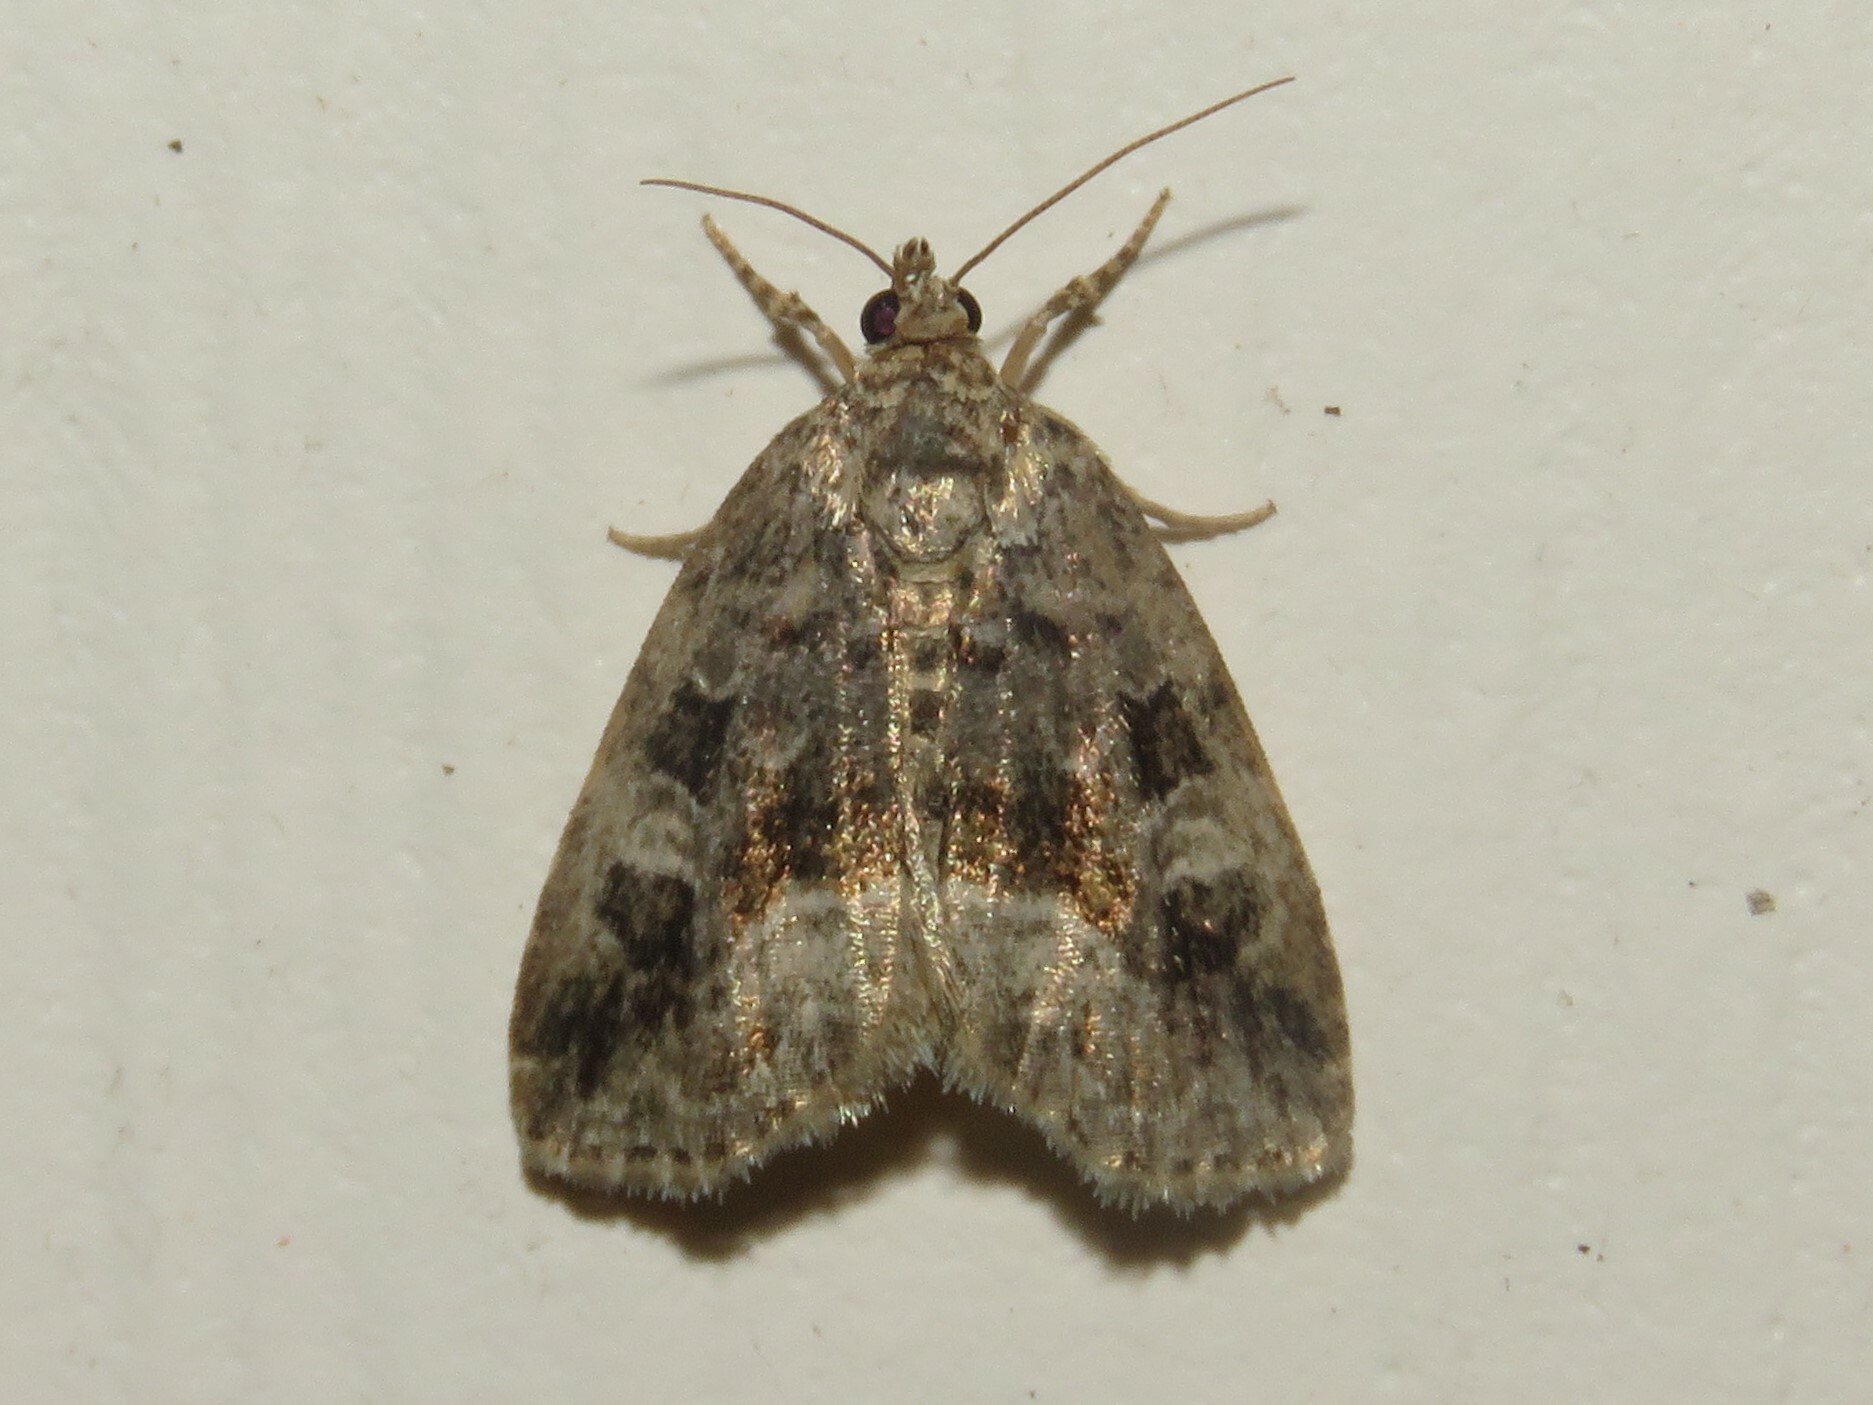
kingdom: Animalia
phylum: Arthropoda
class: Insecta
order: Lepidoptera
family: Noctuidae
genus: Protodeltote
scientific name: Protodeltote muscosula
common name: Large mossy glyph
